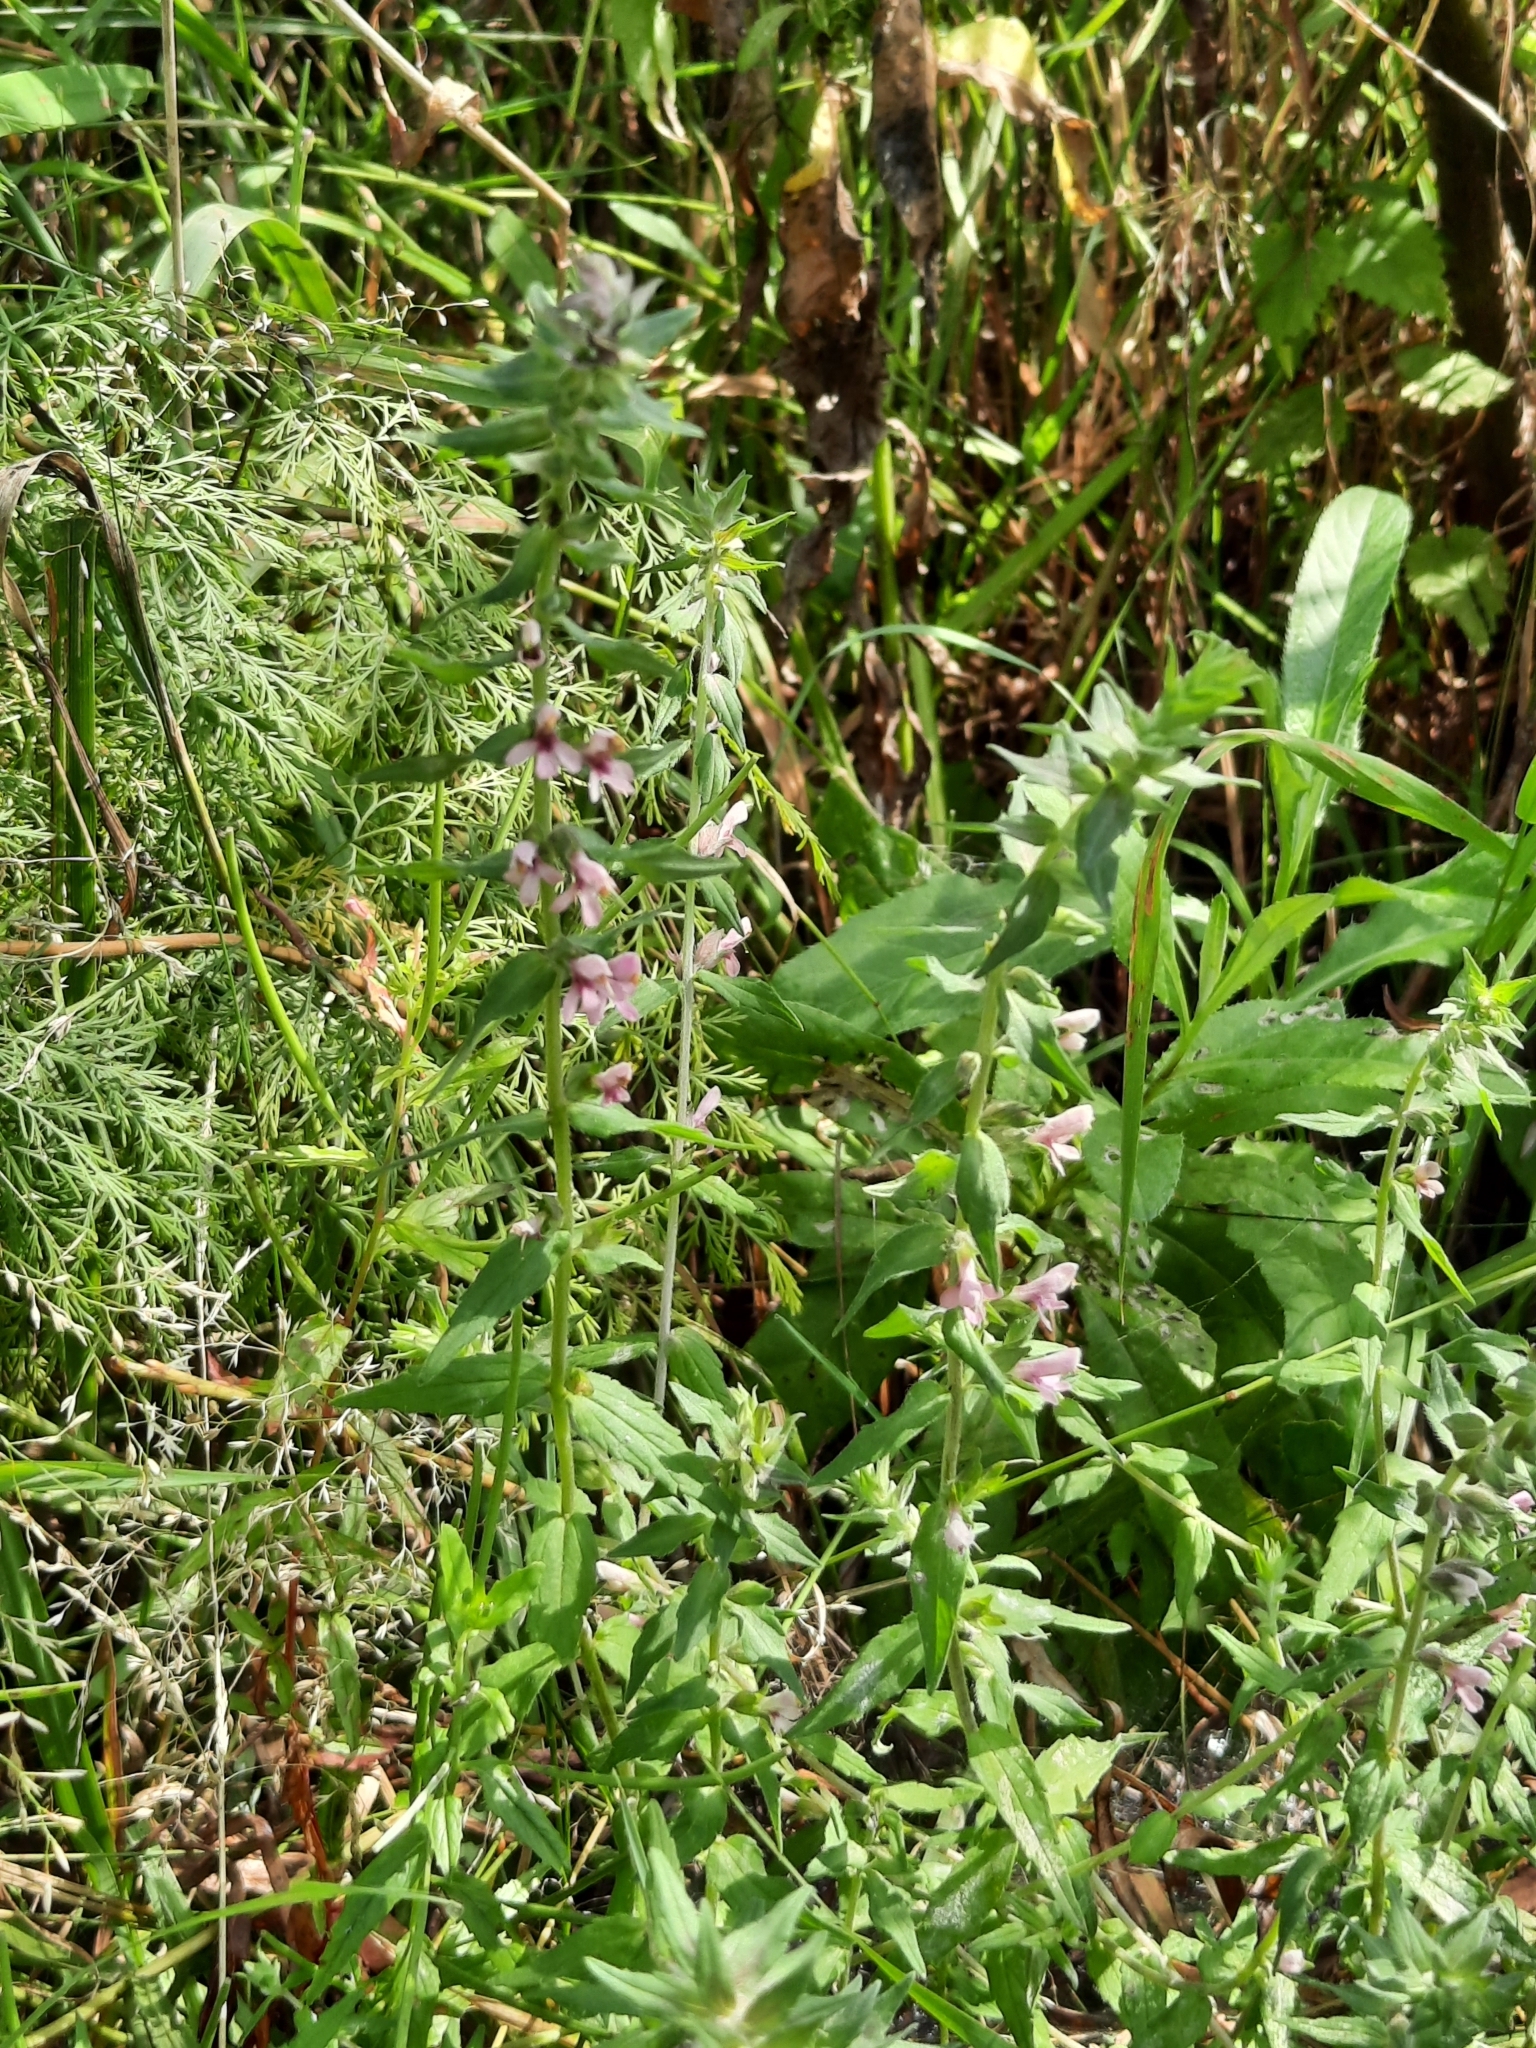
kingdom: Plantae
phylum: Tracheophyta
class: Magnoliopsida
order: Lamiales
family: Orobanchaceae
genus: Odontites
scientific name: Odontites vulgaris
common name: Broomrape
